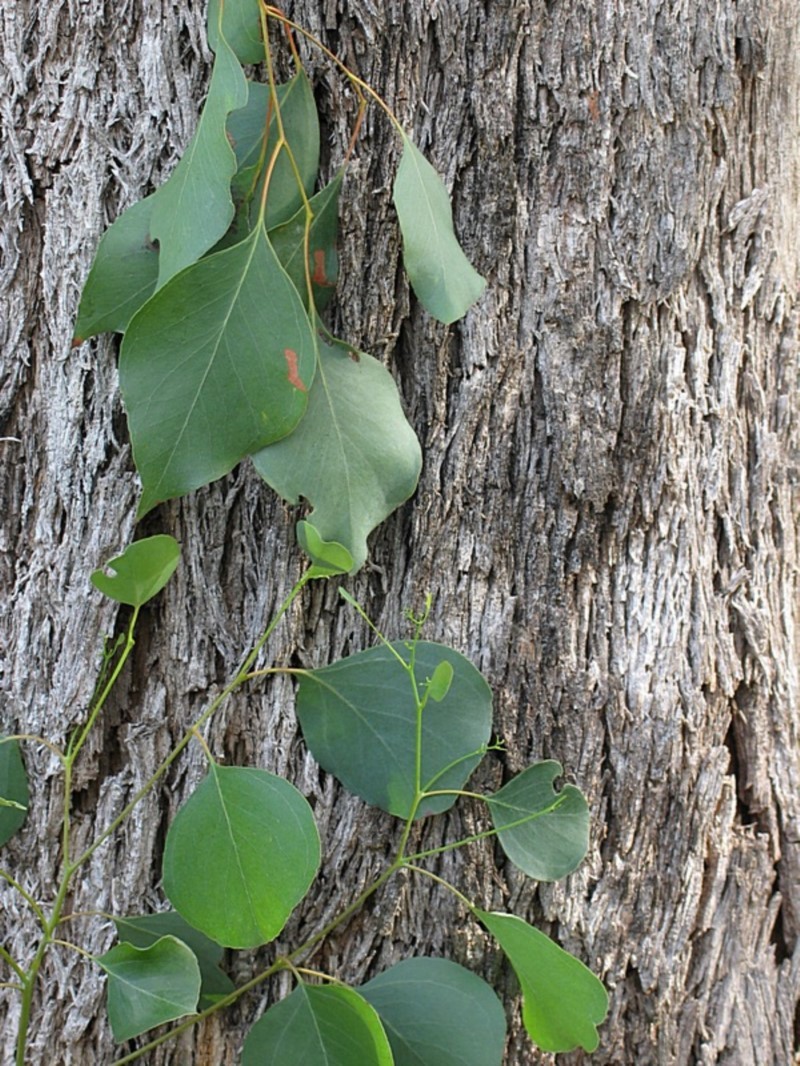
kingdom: Plantae
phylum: Tracheophyta
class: Magnoliopsida
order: Myrtales
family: Myrtaceae
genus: Eucalyptus
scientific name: Eucalyptus baueriana
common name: Round-leaf-box
